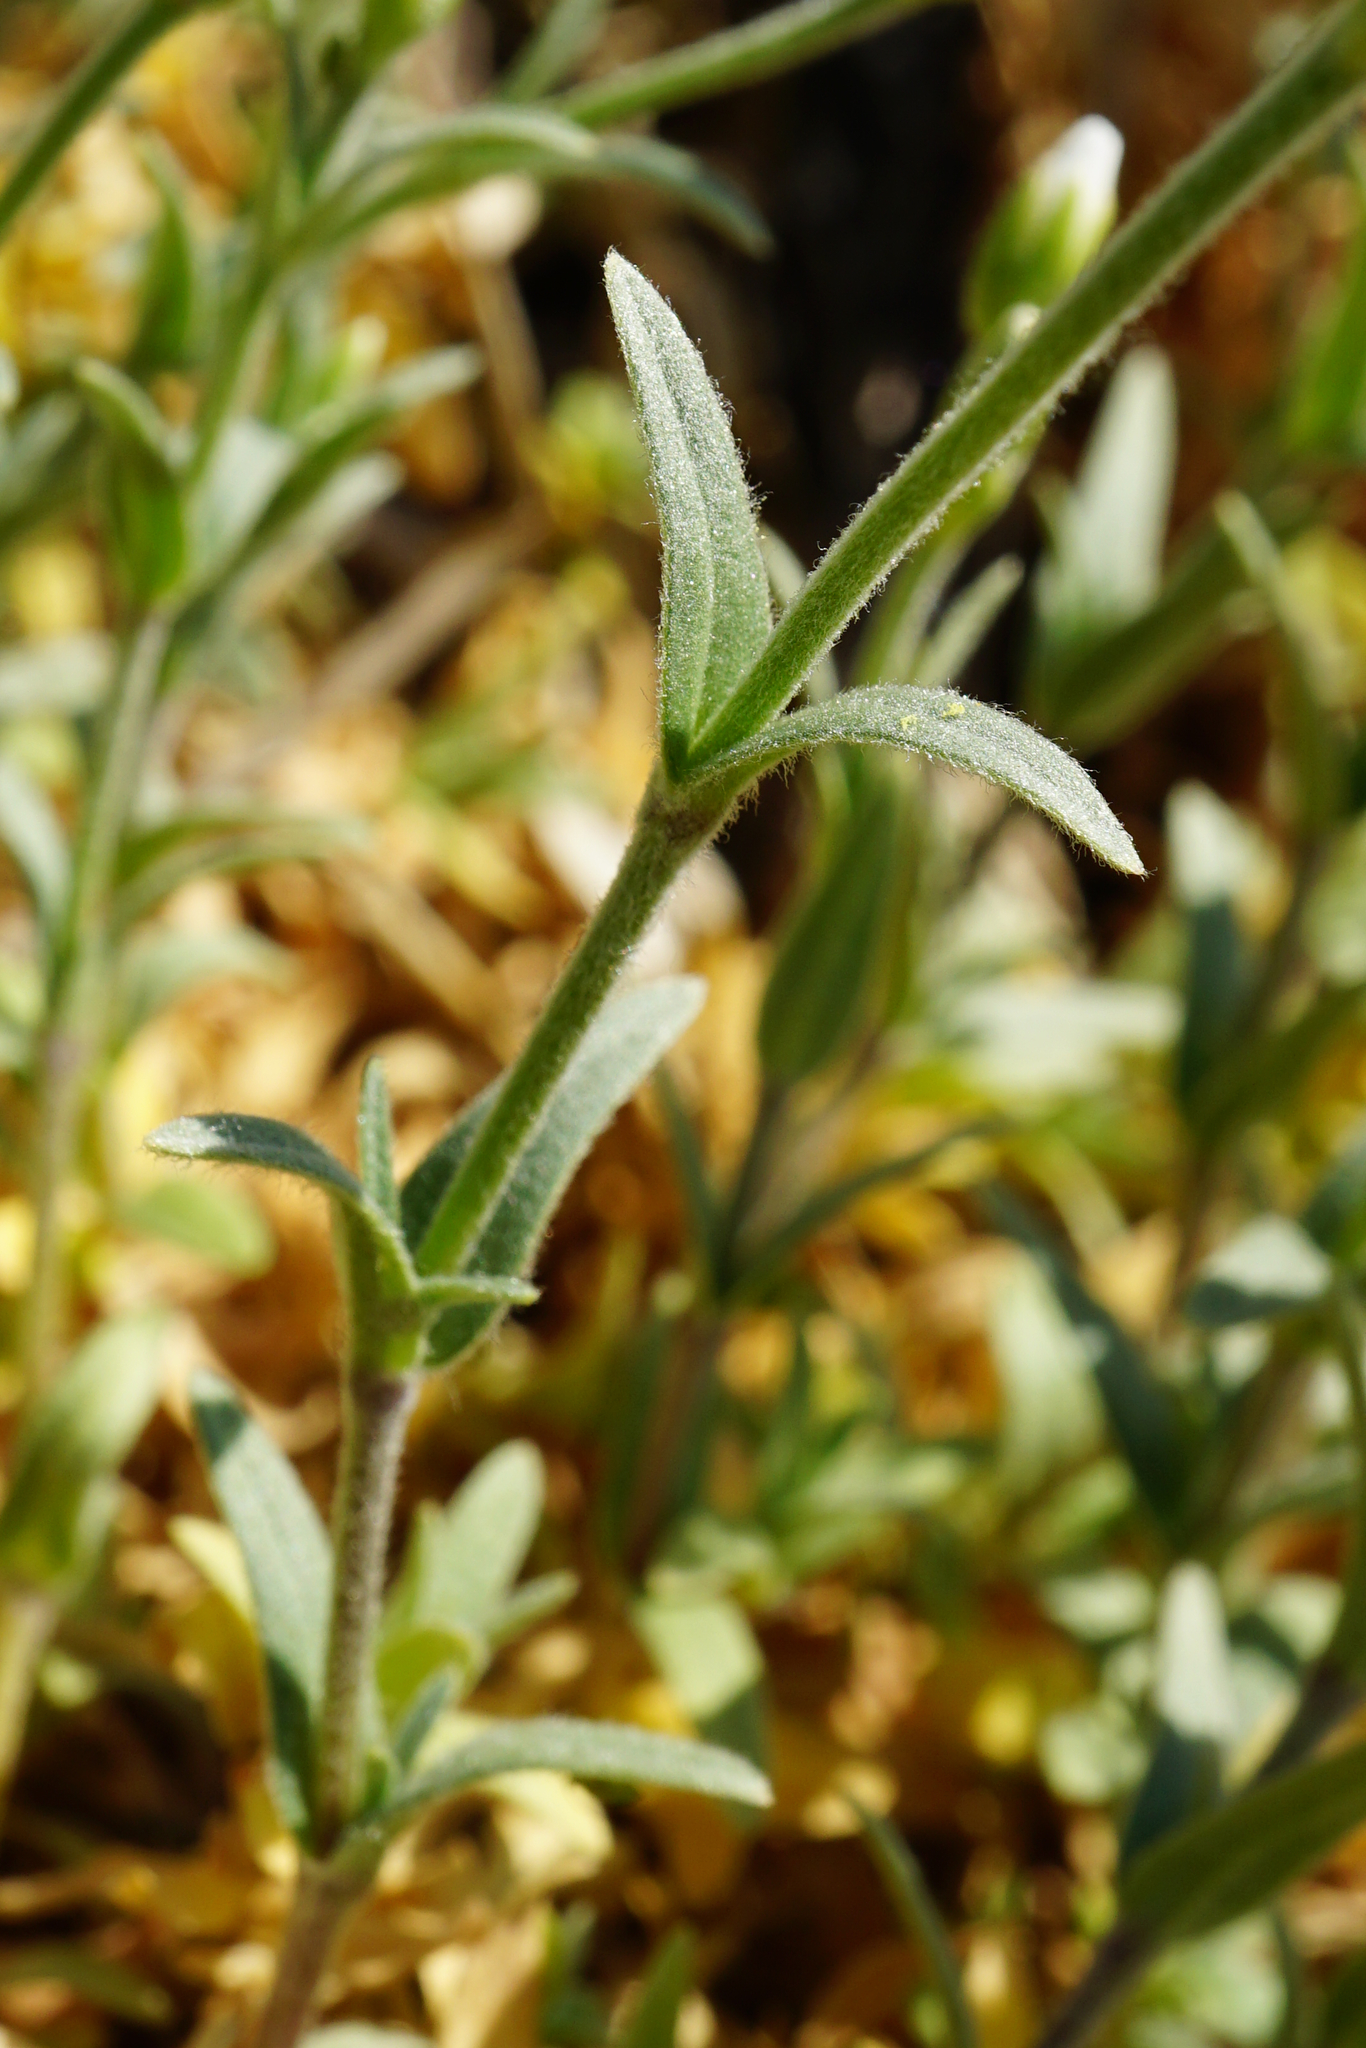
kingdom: Plantae
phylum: Tracheophyta
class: Magnoliopsida
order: Caryophyllales
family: Caryophyllaceae
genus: Cerastium
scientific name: Cerastium tomentosum
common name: Snow-in-summer
